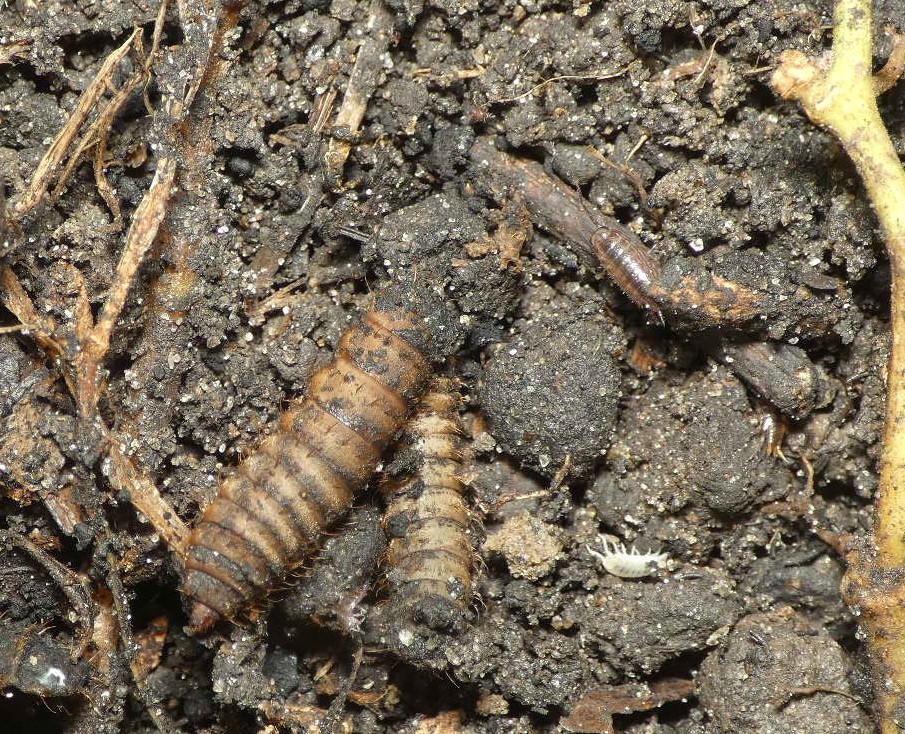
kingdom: Animalia
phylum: Arthropoda
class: Insecta
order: Diptera
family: Stratiomyidae
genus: Hermetia
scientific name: Hermetia illucens
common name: Black soldier fly
